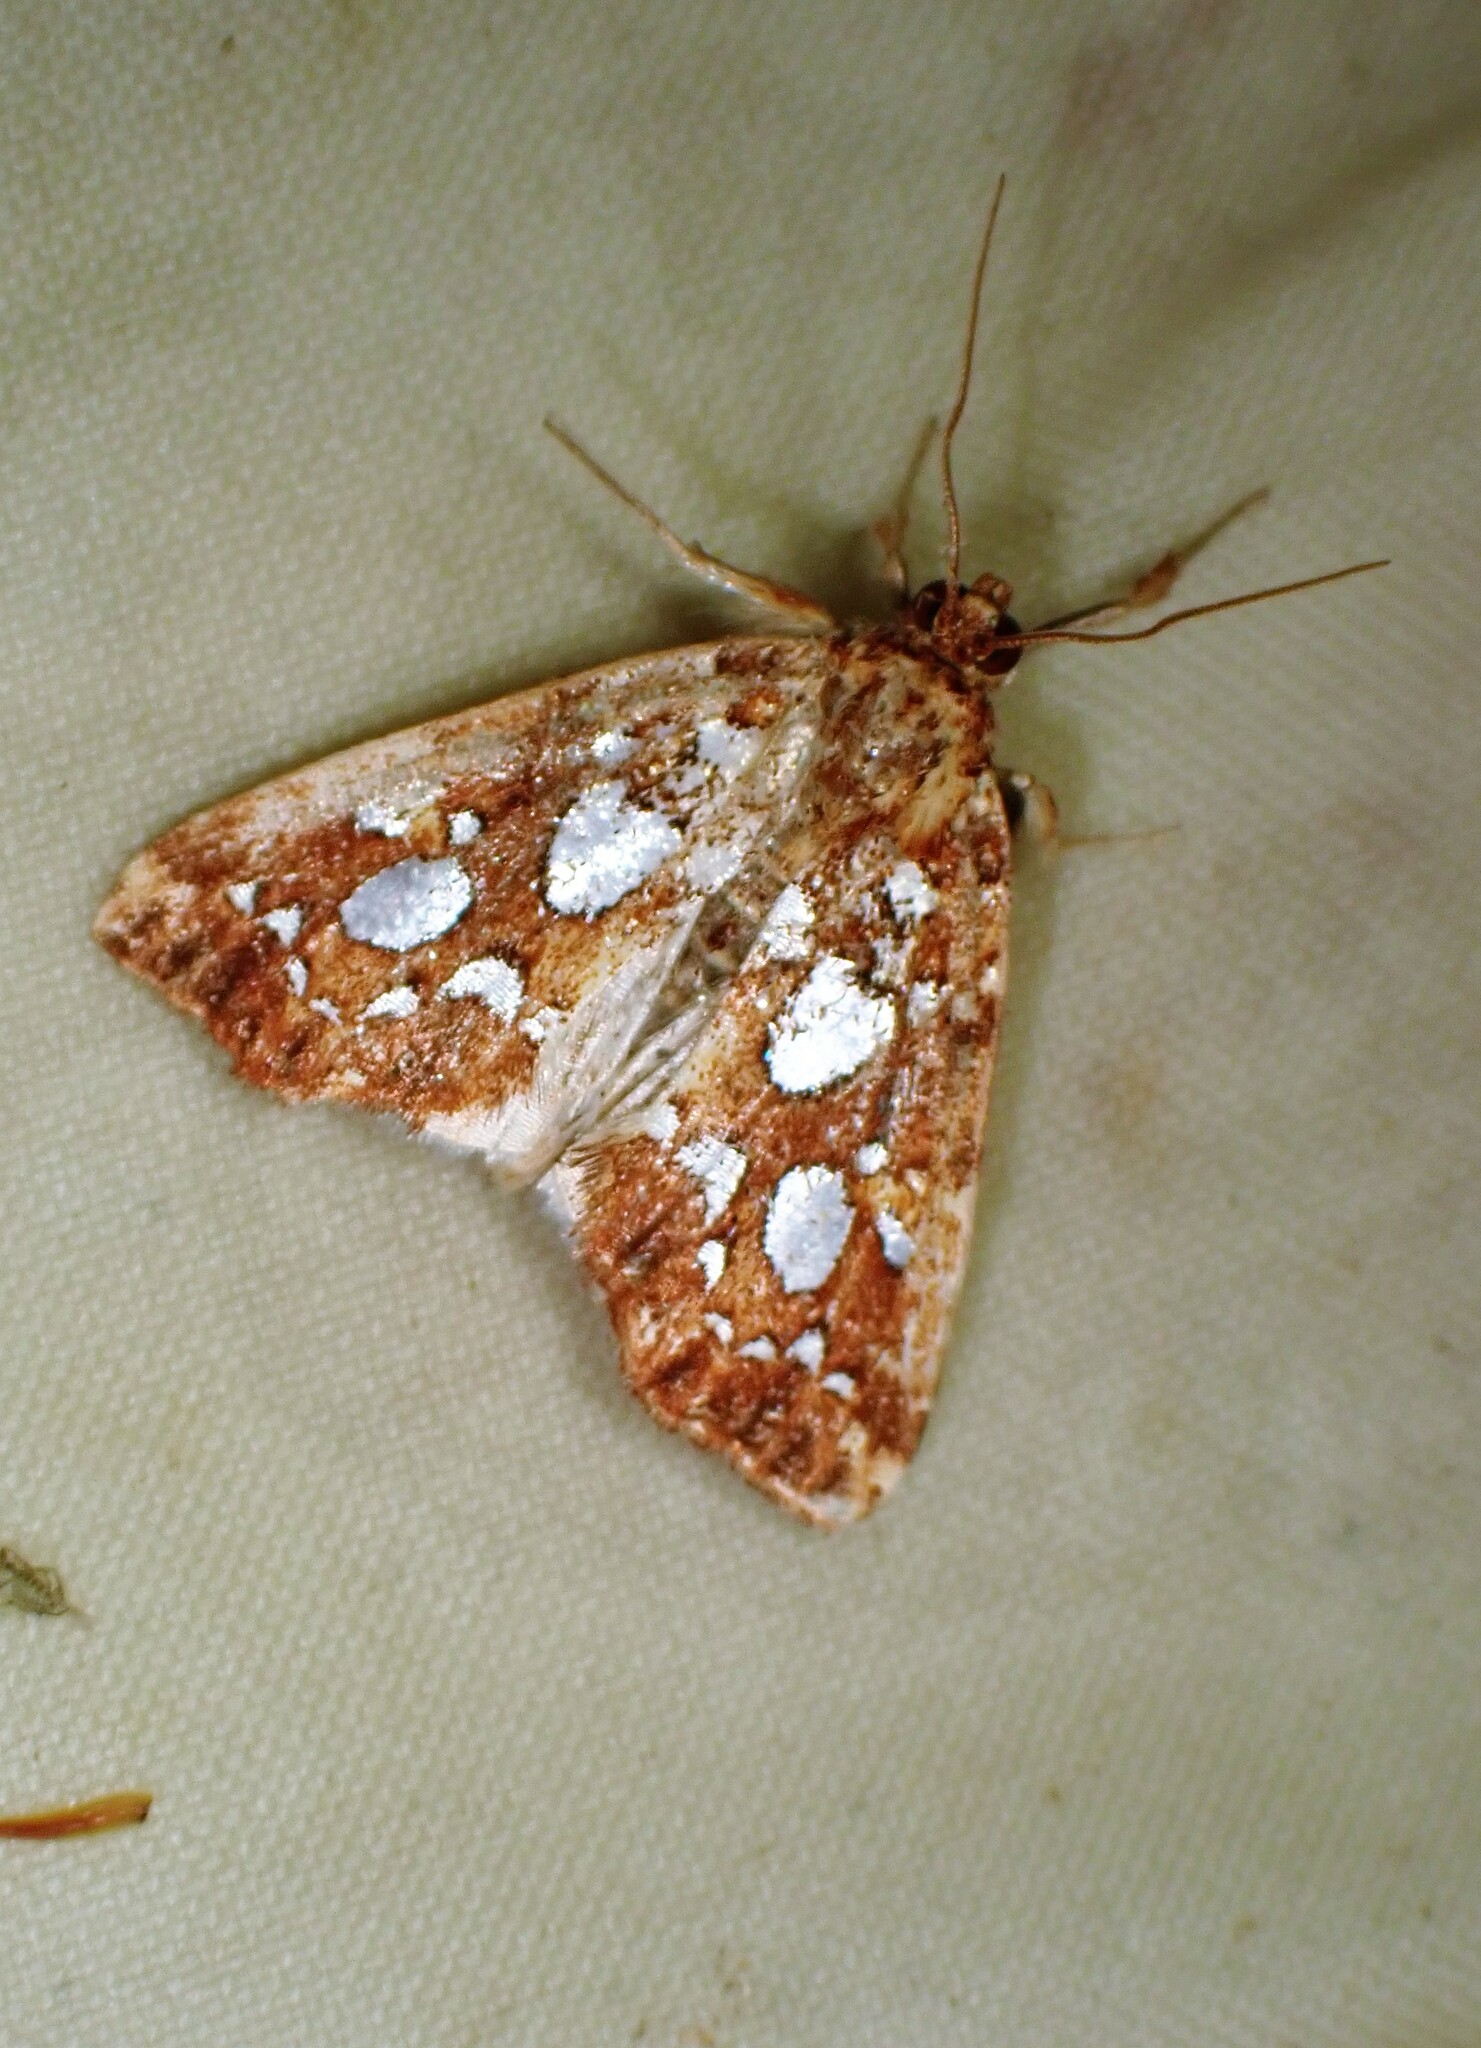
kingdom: Animalia
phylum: Arthropoda
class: Insecta
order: Lepidoptera
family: Noctuidae
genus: Callopistria
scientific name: Callopistria cordata
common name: Silver-spotted fern moth
